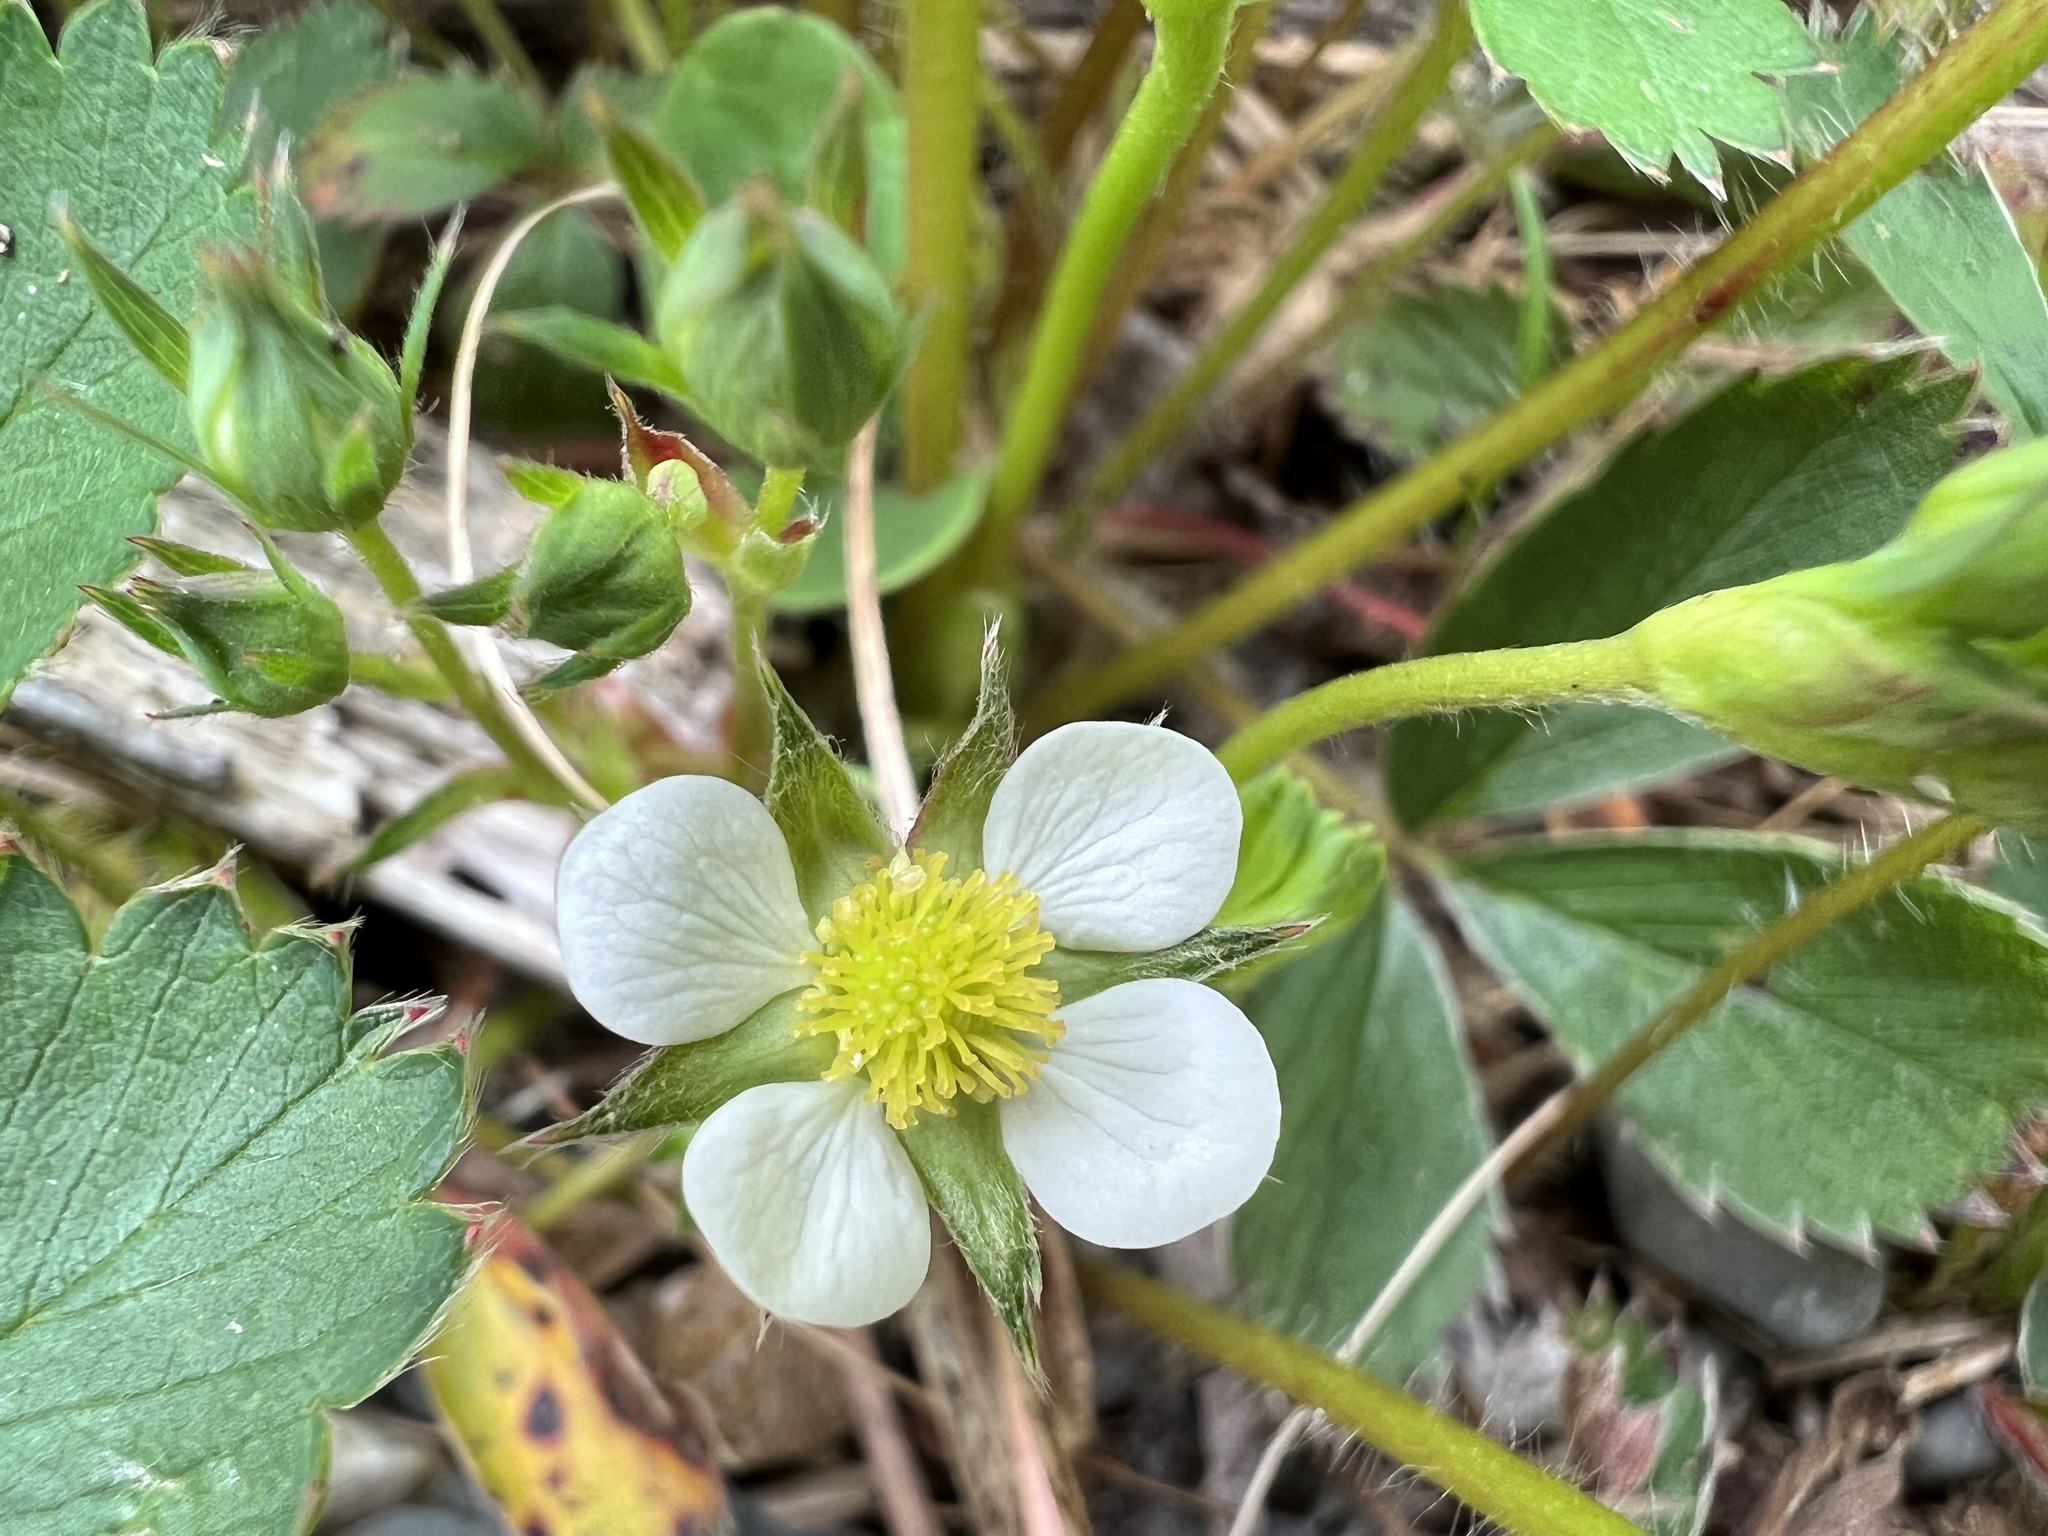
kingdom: Plantae
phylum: Tracheophyta
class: Magnoliopsida
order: Rosales
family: Rosaceae
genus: Fragaria
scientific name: Fragaria virginiana
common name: Thickleaved wild strawberry
